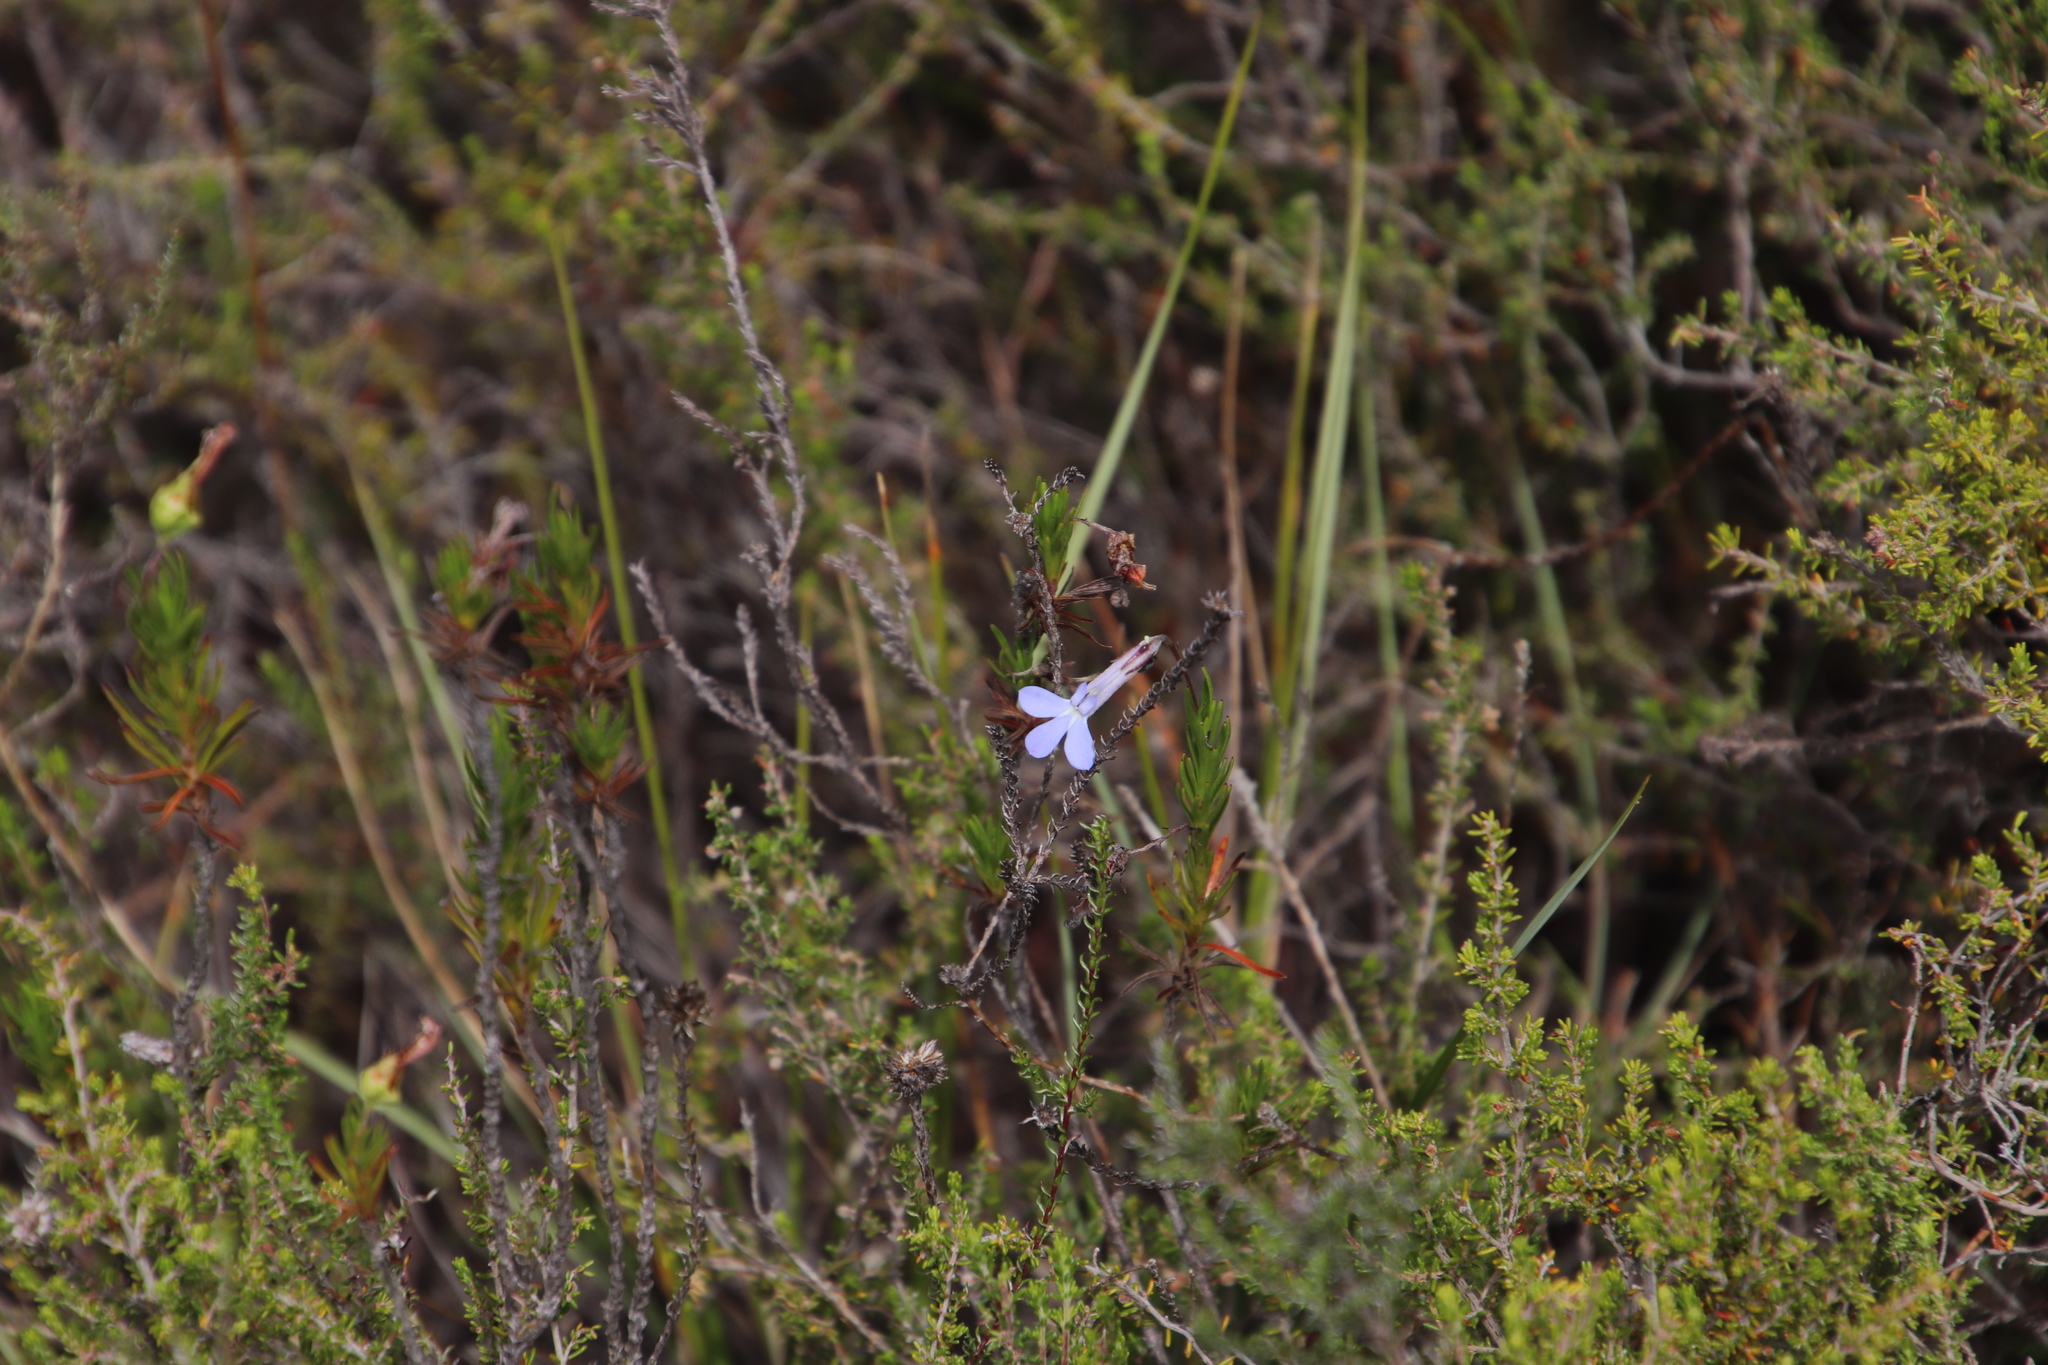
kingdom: Plantae
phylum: Tracheophyta
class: Magnoliopsida
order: Asterales
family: Campanulaceae
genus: Lobelia
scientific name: Lobelia pinifolia
